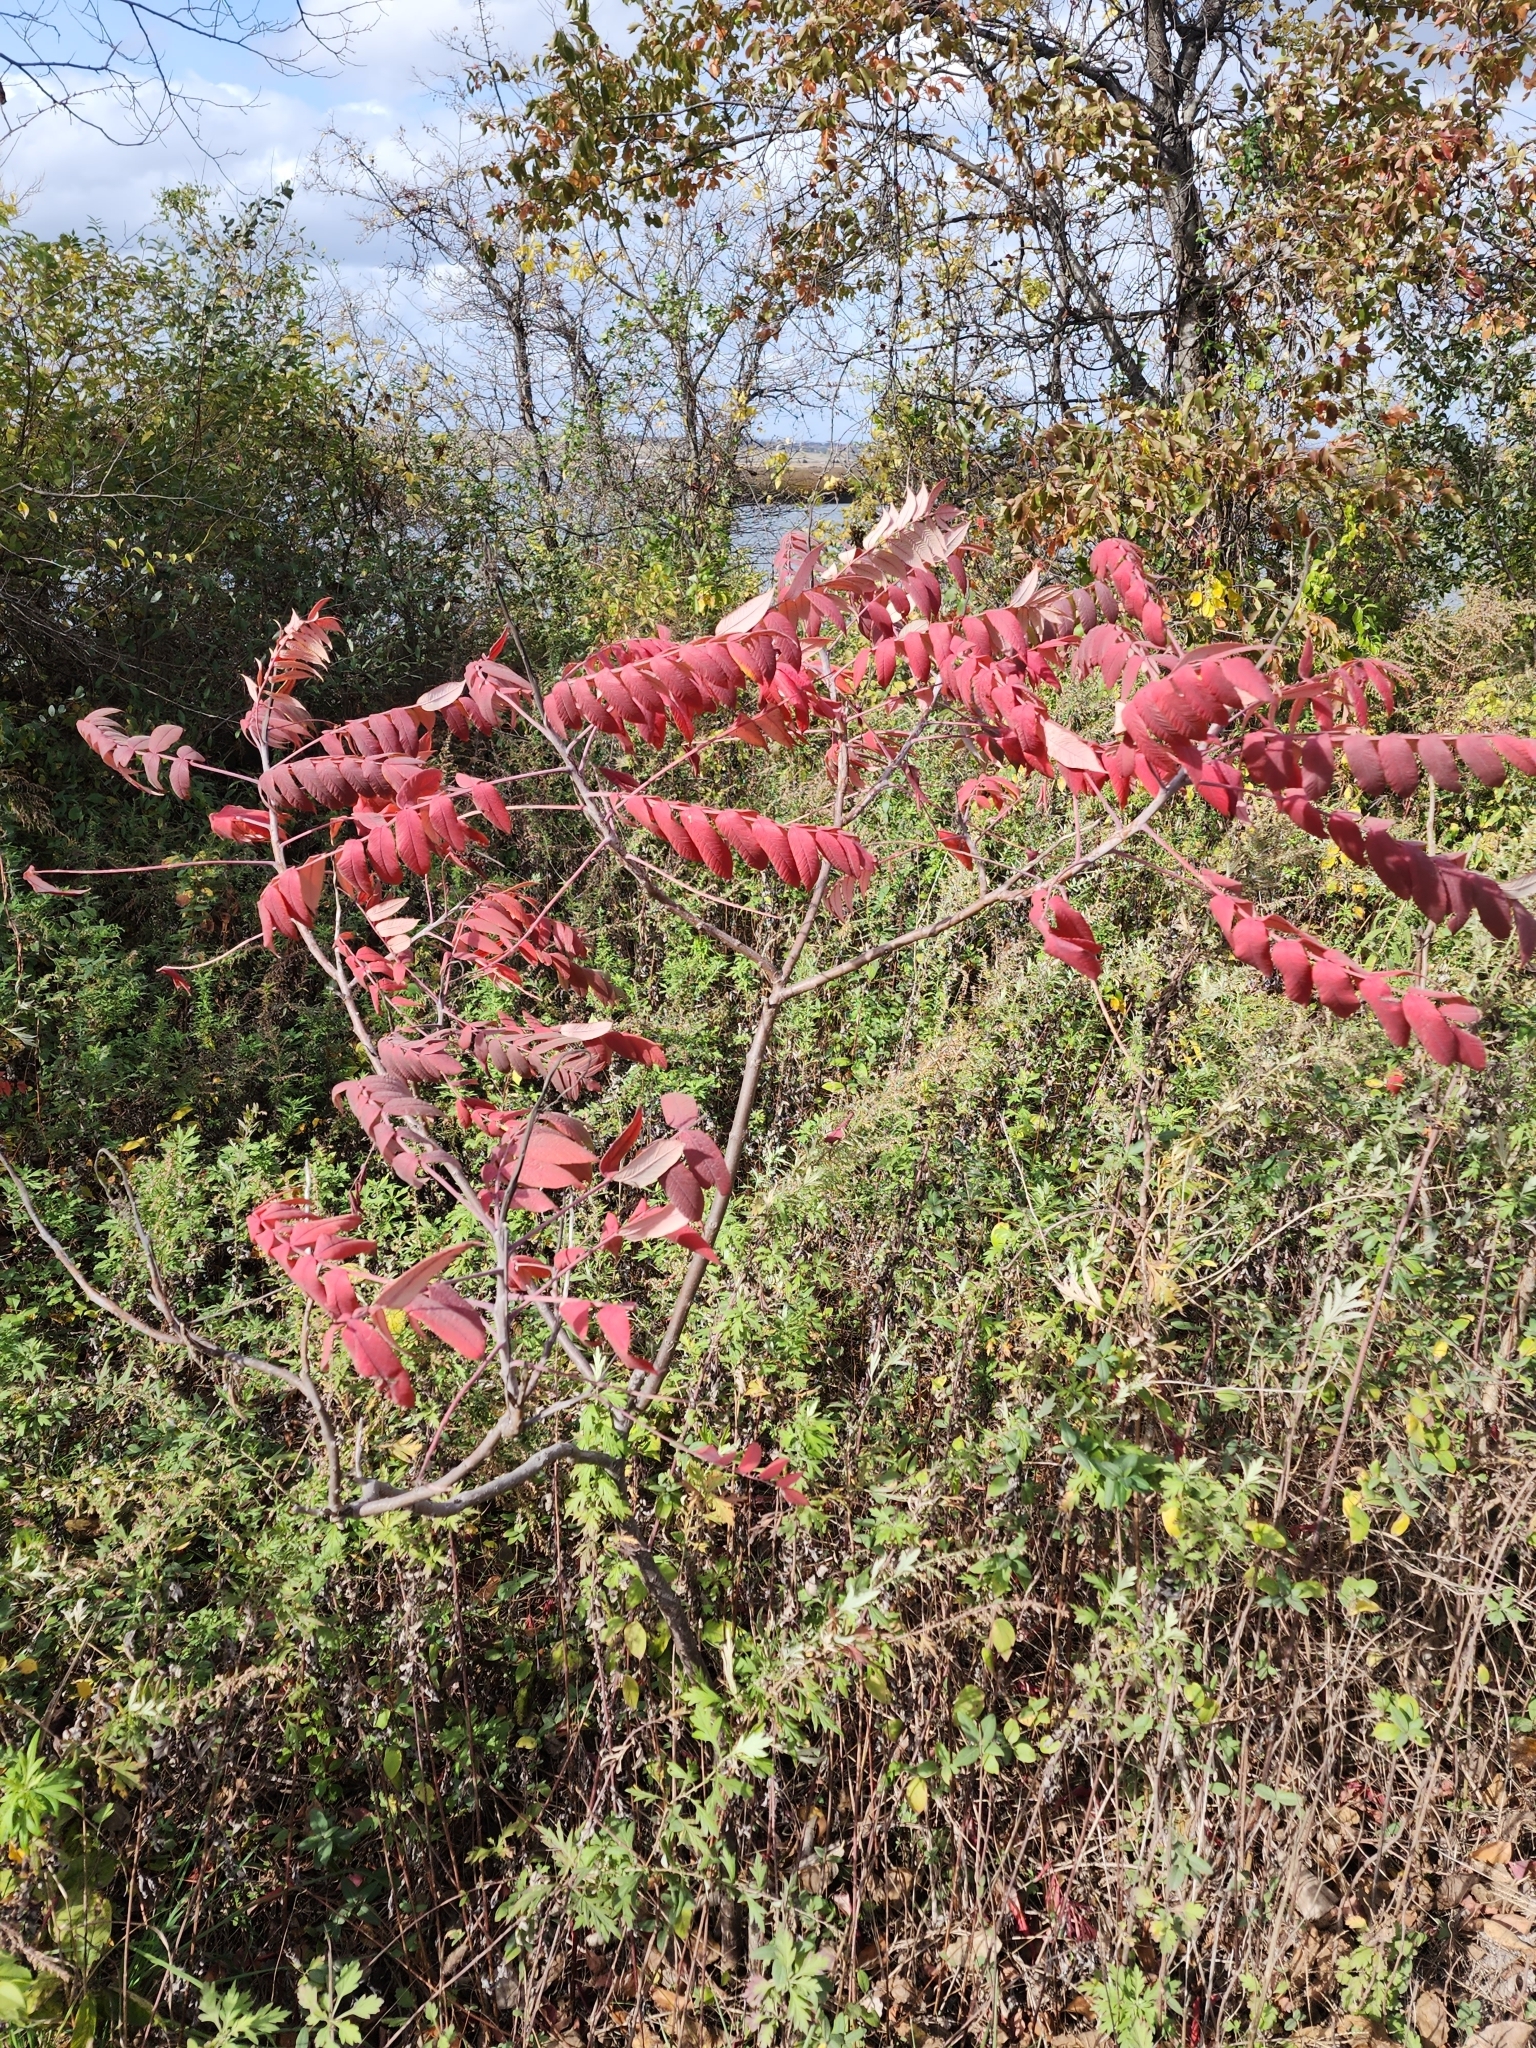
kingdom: Plantae
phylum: Tracheophyta
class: Magnoliopsida
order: Sapindales
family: Anacardiaceae
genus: Rhus
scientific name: Rhus glabra
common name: Scarlet sumac
